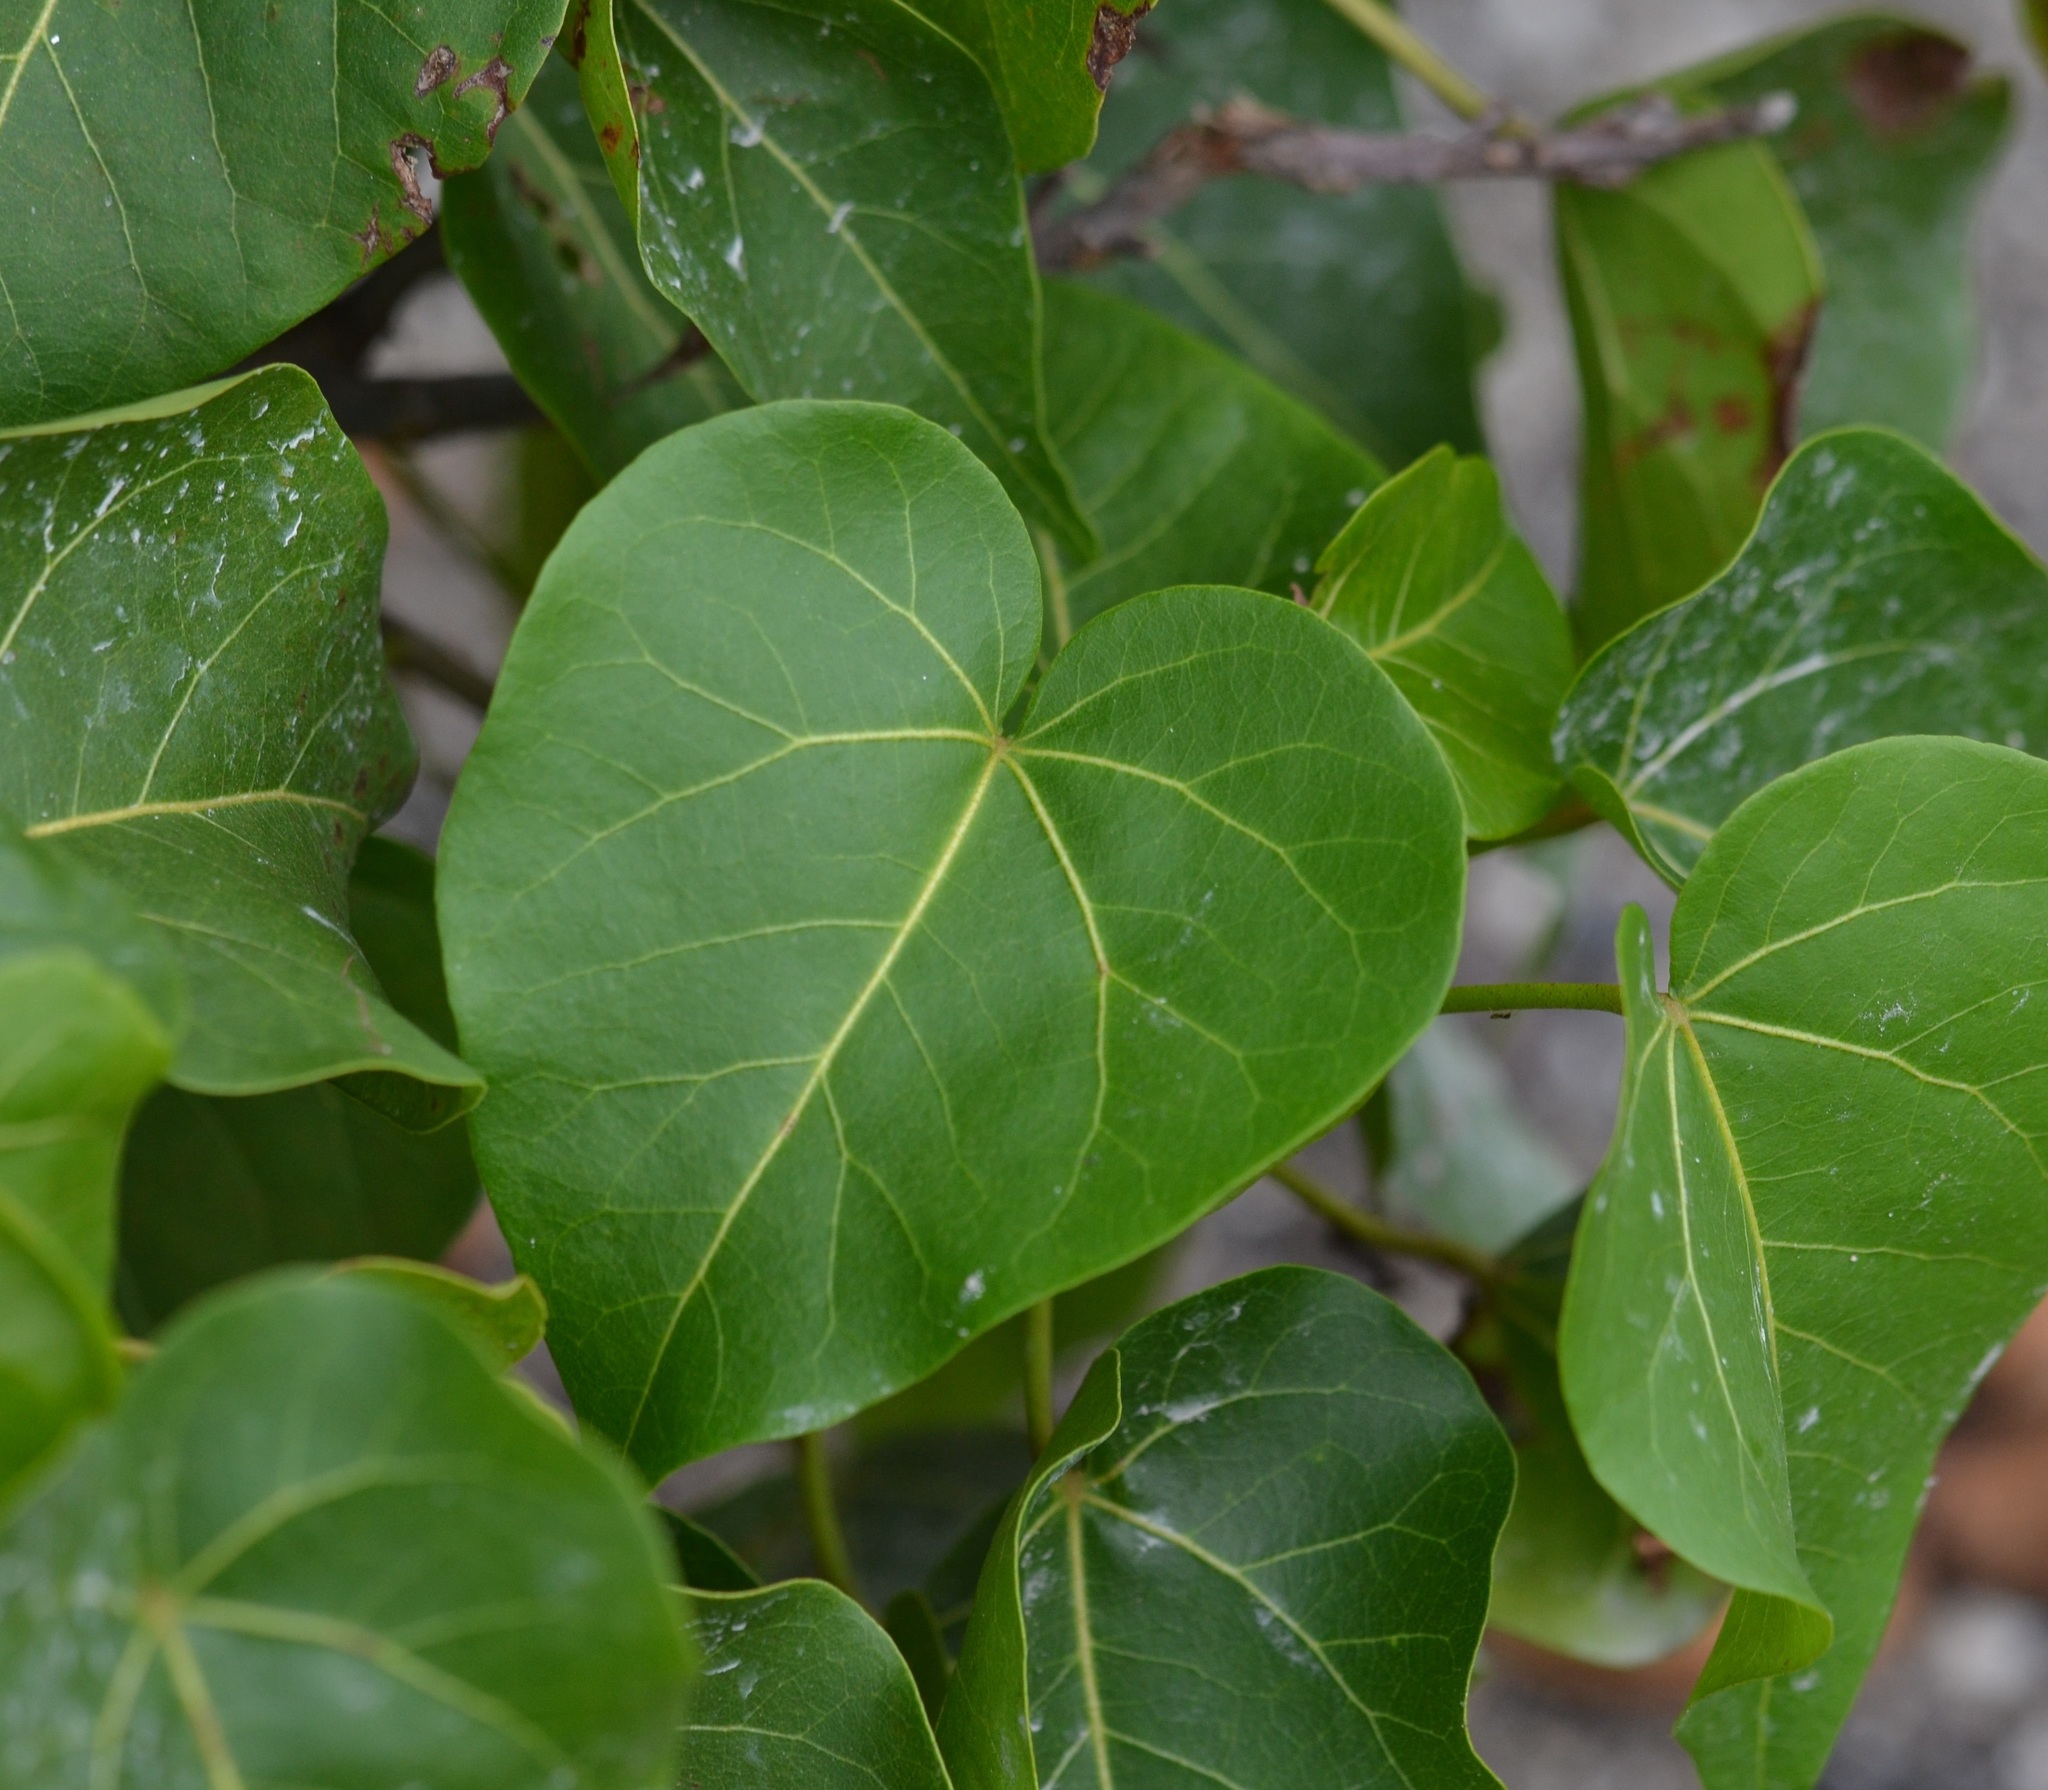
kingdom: Plantae
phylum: Tracheophyta
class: Magnoliopsida
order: Malvales
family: Malvaceae
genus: Thespesia
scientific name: Thespesia populnea
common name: Seaside mahoe
